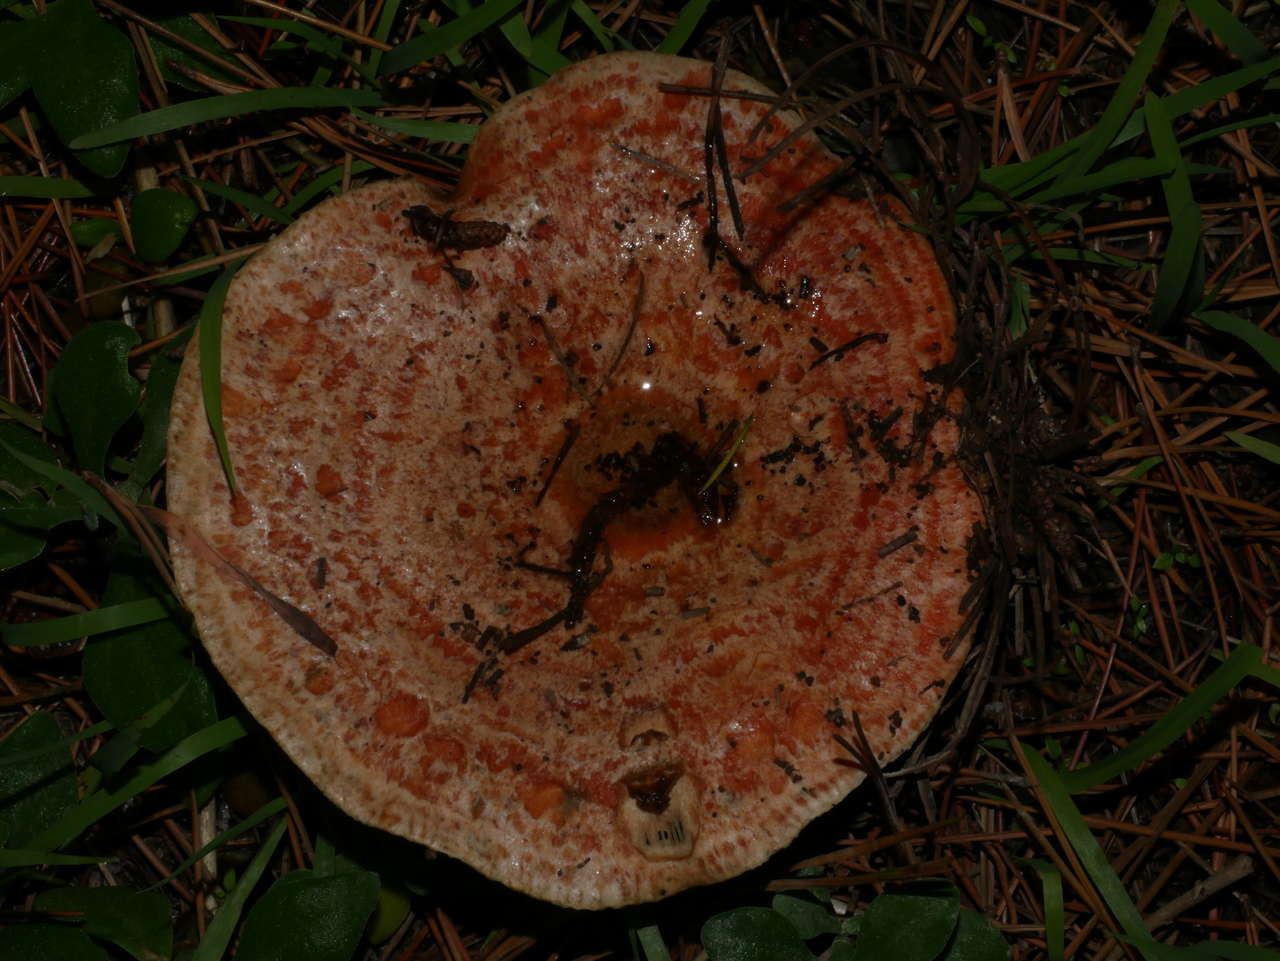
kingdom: Fungi
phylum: Basidiomycota
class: Agaricomycetes
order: Russulales
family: Russulaceae
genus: Lactarius
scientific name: Lactarius deliciosus
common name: Saffron milk-cap
